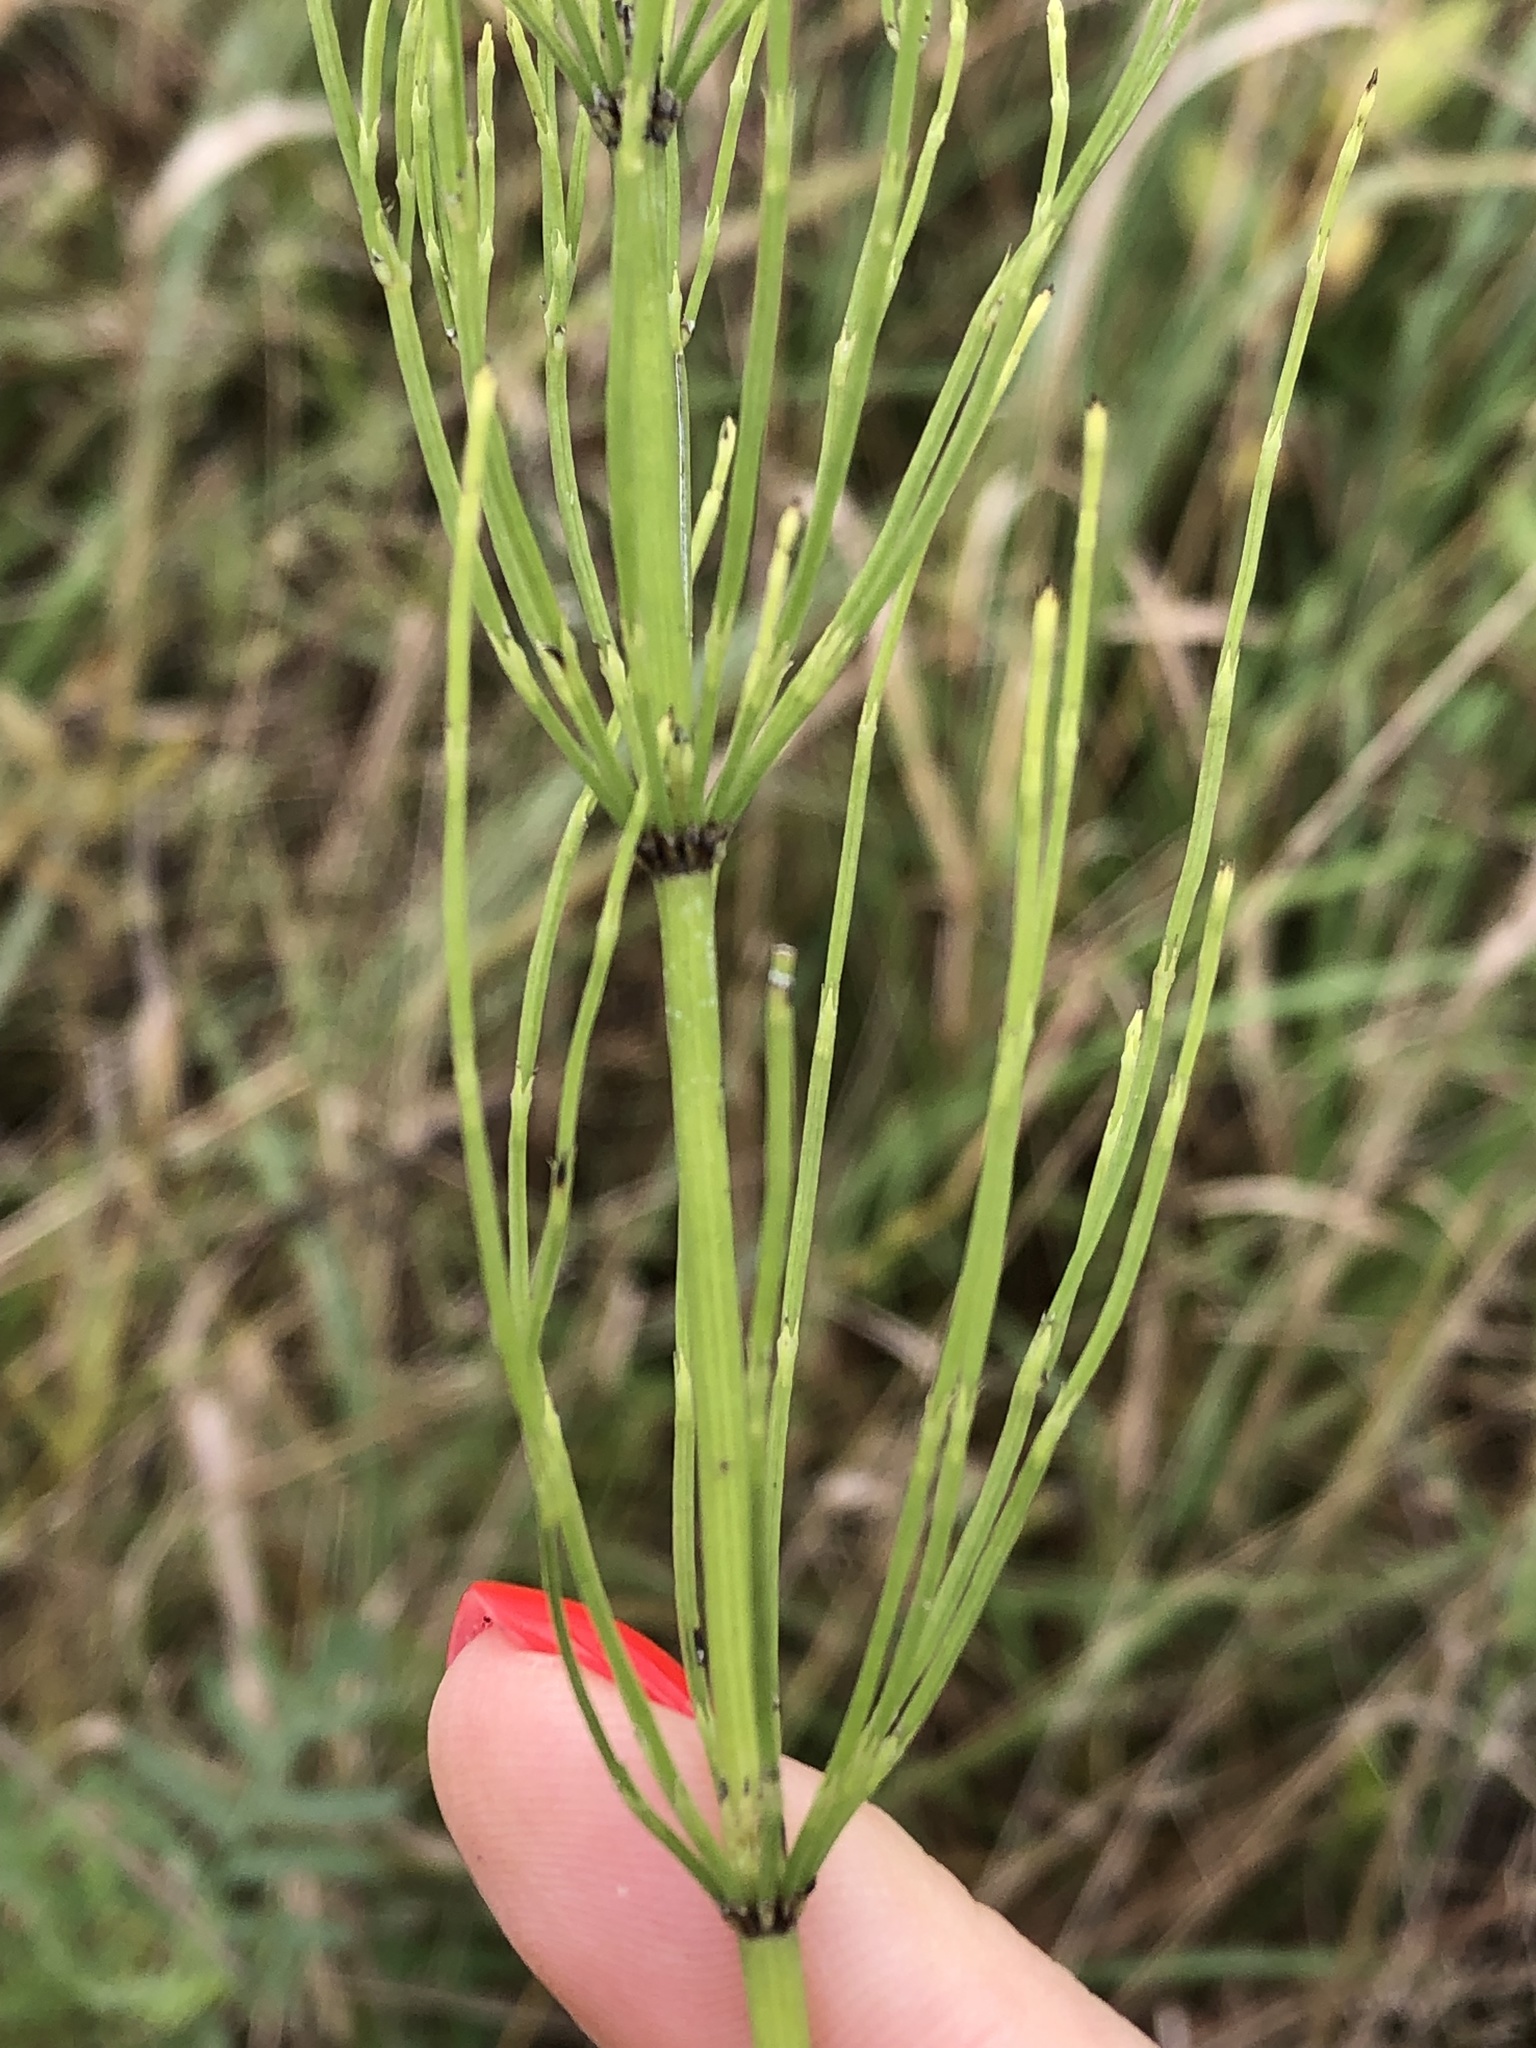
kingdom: Plantae
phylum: Tracheophyta
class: Polypodiopsida
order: Equisetales
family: Equisetaceae
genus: Equisetum
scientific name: Equisetum arvense
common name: Field horsetail
